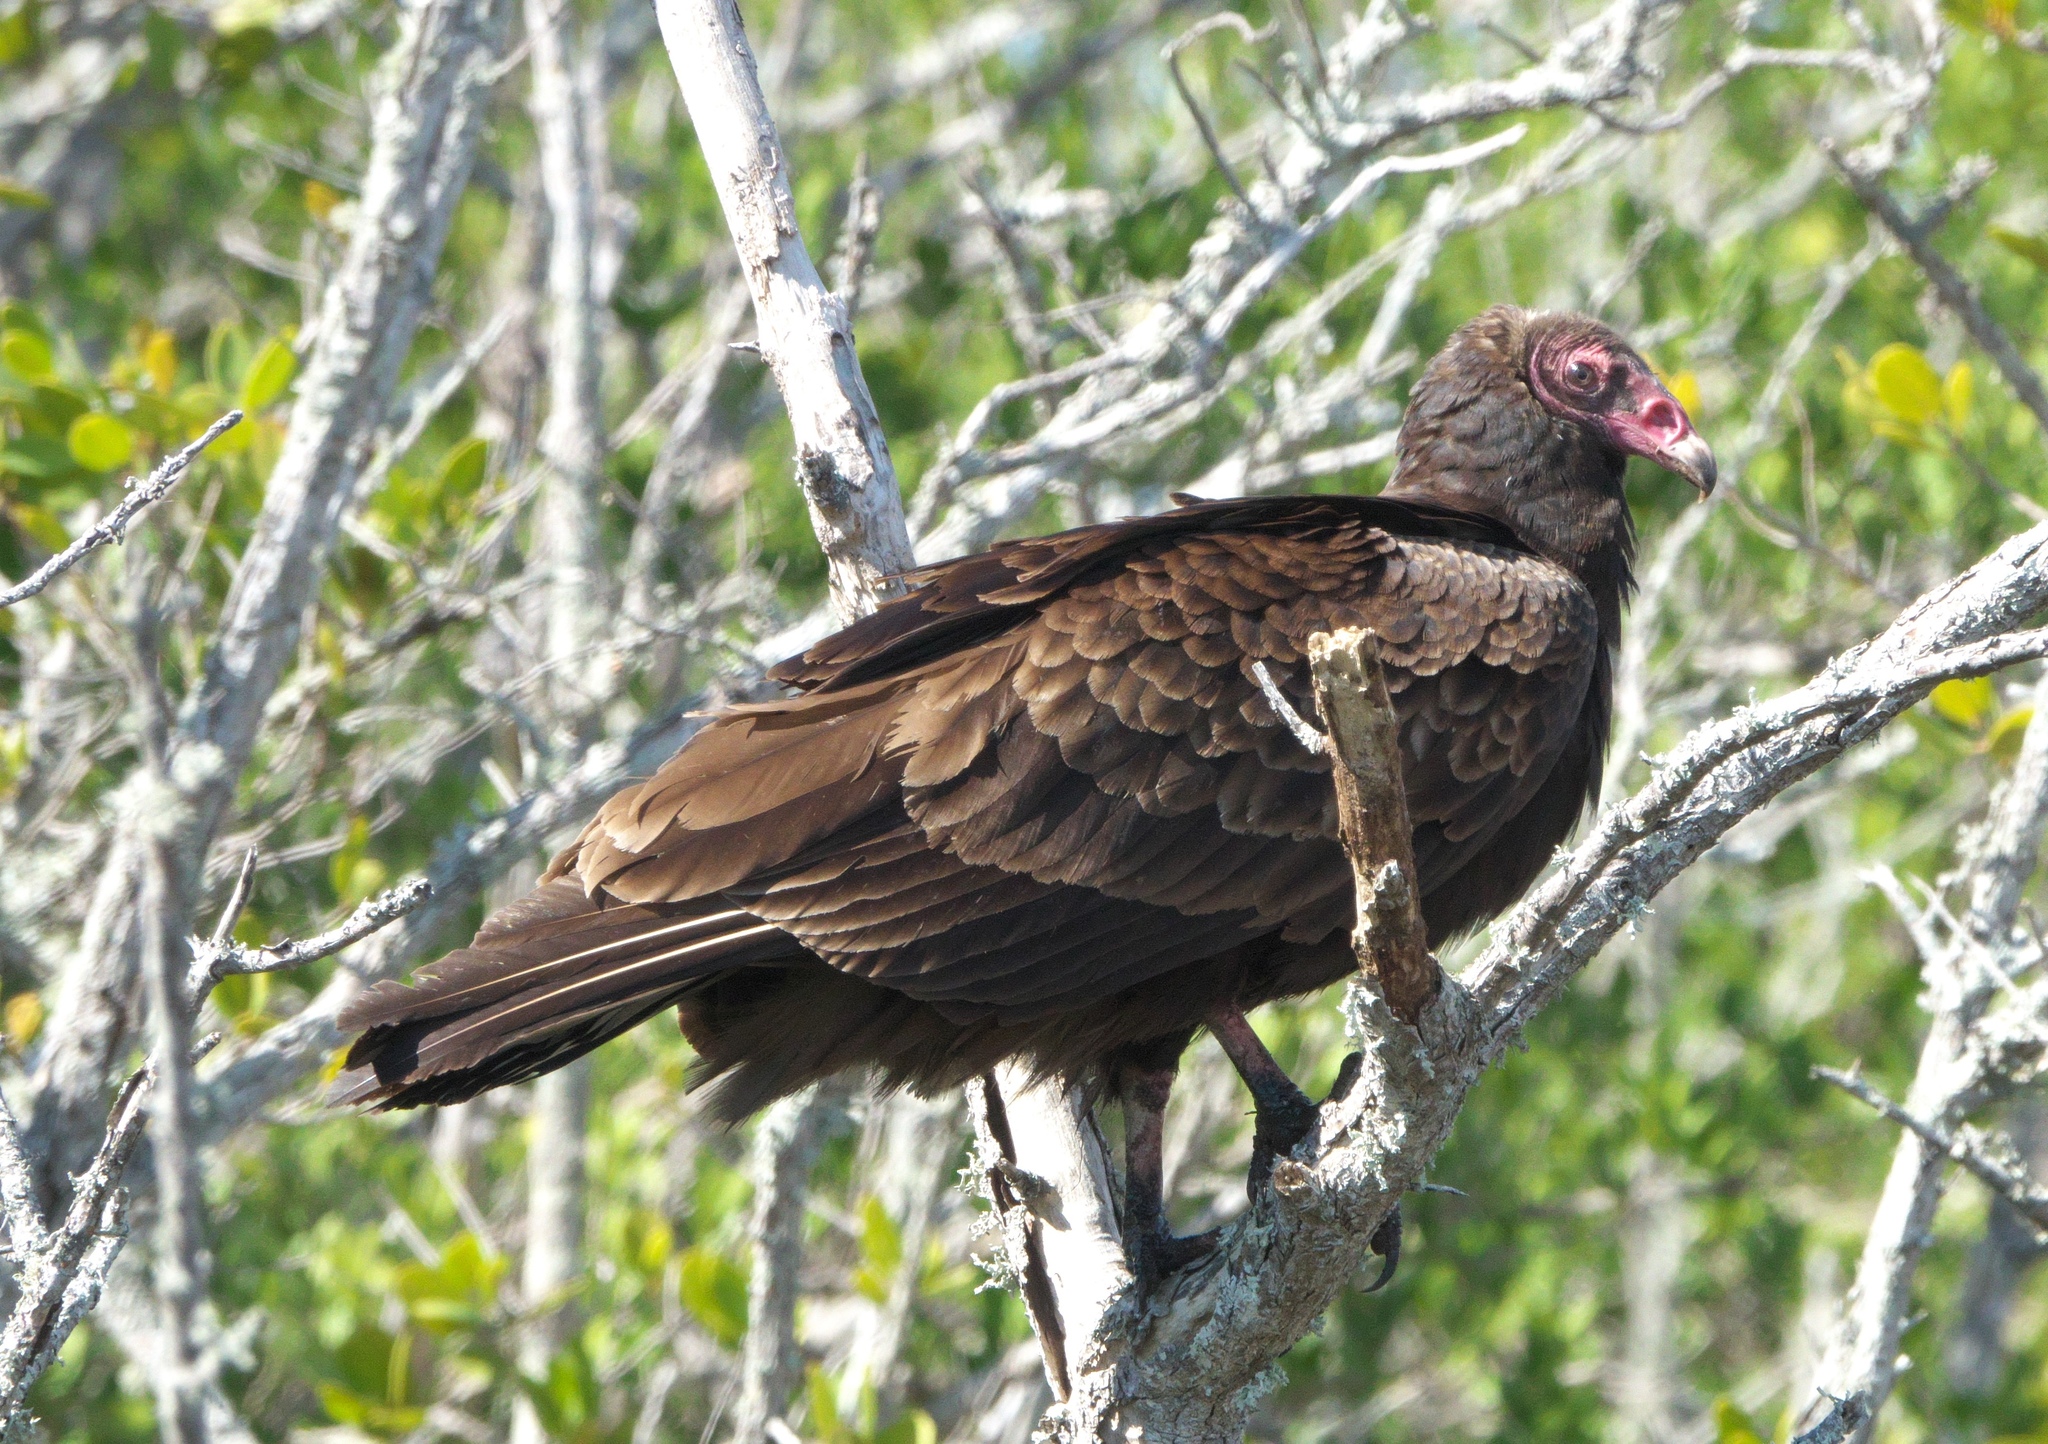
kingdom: Animalia
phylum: Chordata
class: Aves
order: Accipitriformes
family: Cathartidae
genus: Cathartes
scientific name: Cathartes aura
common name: Turkey vulture
